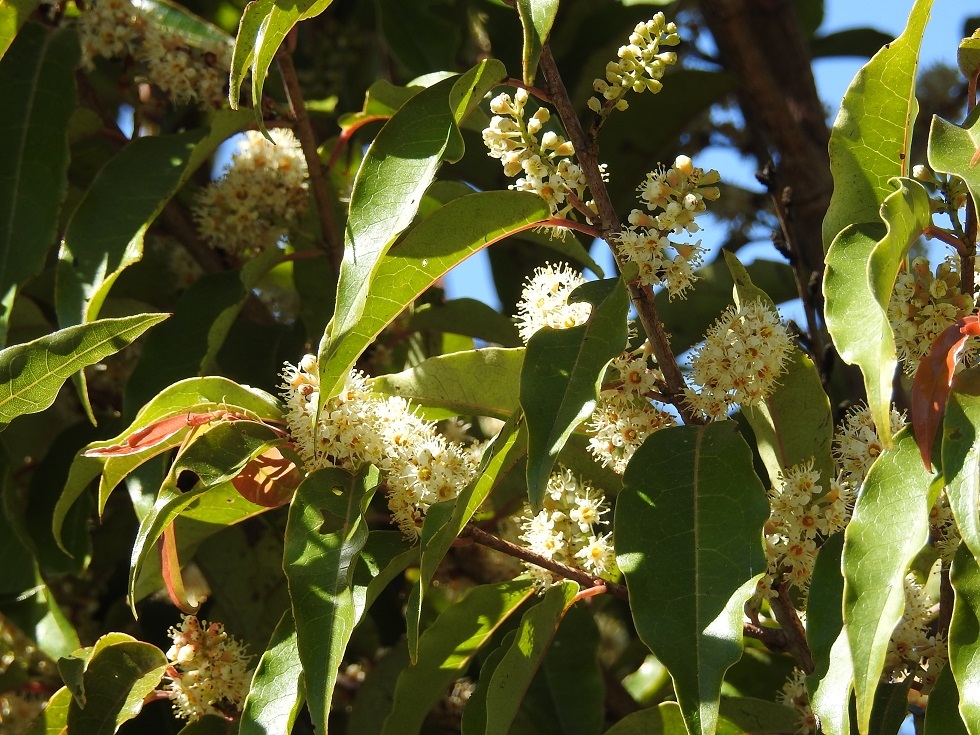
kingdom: Plantae
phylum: Tracheophyta
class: Magnoliopsida
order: Rosales
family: Rosaceae
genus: Prunus
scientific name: Prunus tuberculata
